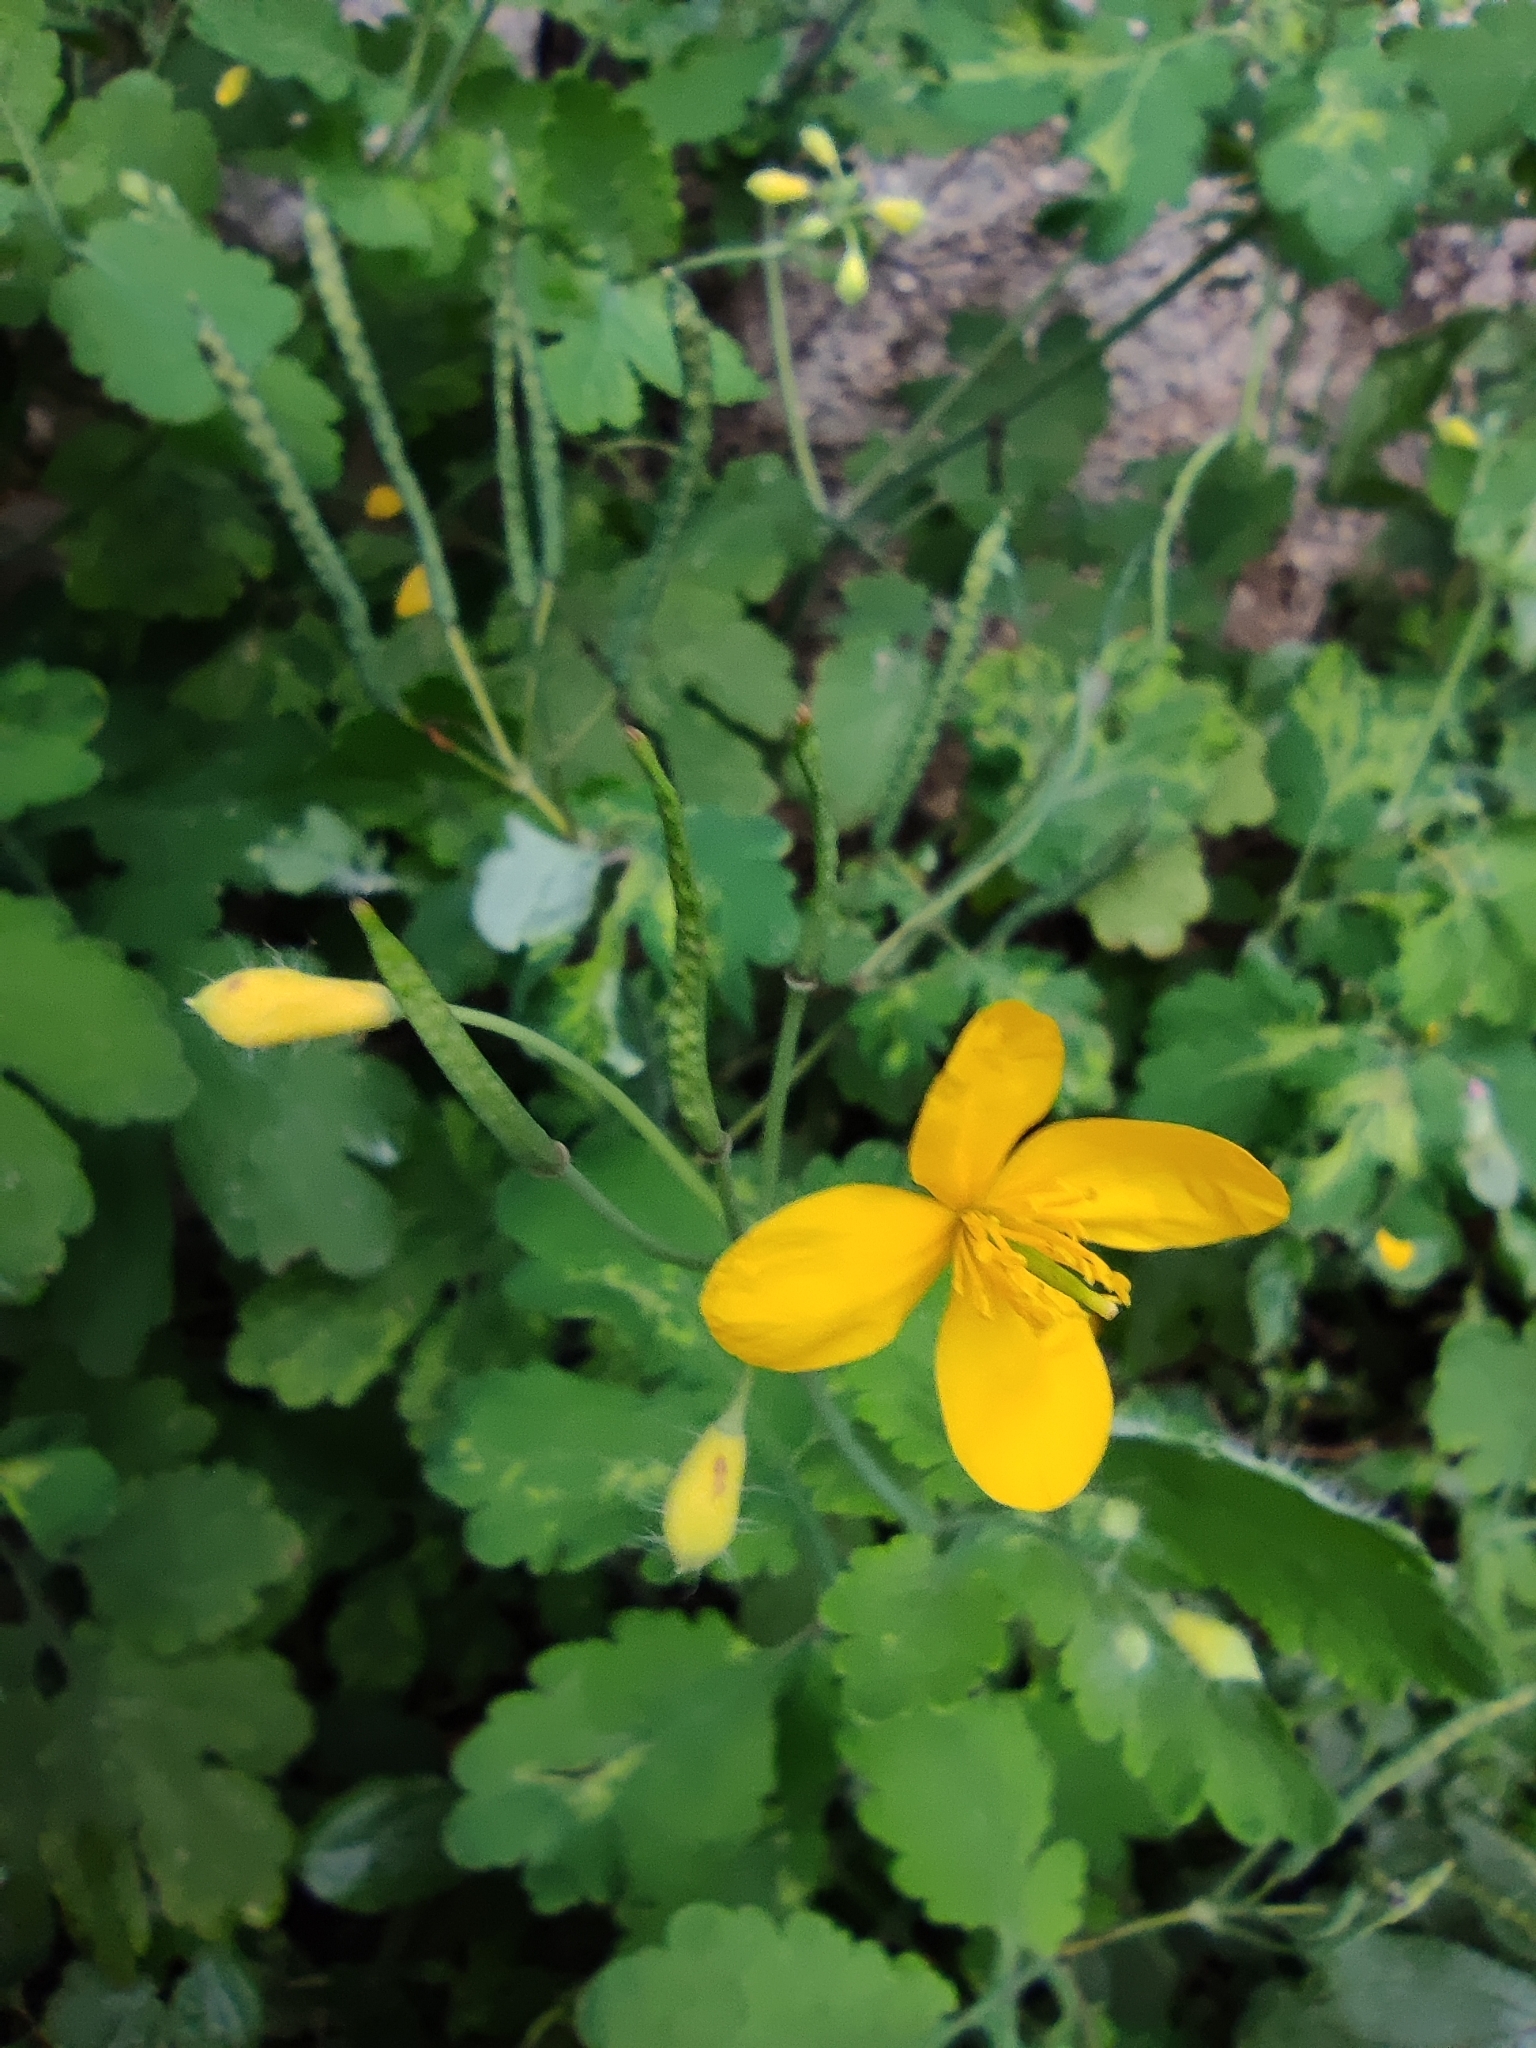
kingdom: Plantae
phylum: Tracheophyta
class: Magnoliopsida
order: Ranunculales
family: Papaveraceae
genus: Chelidonium
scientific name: Chelidonium majus
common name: Greater celandine
